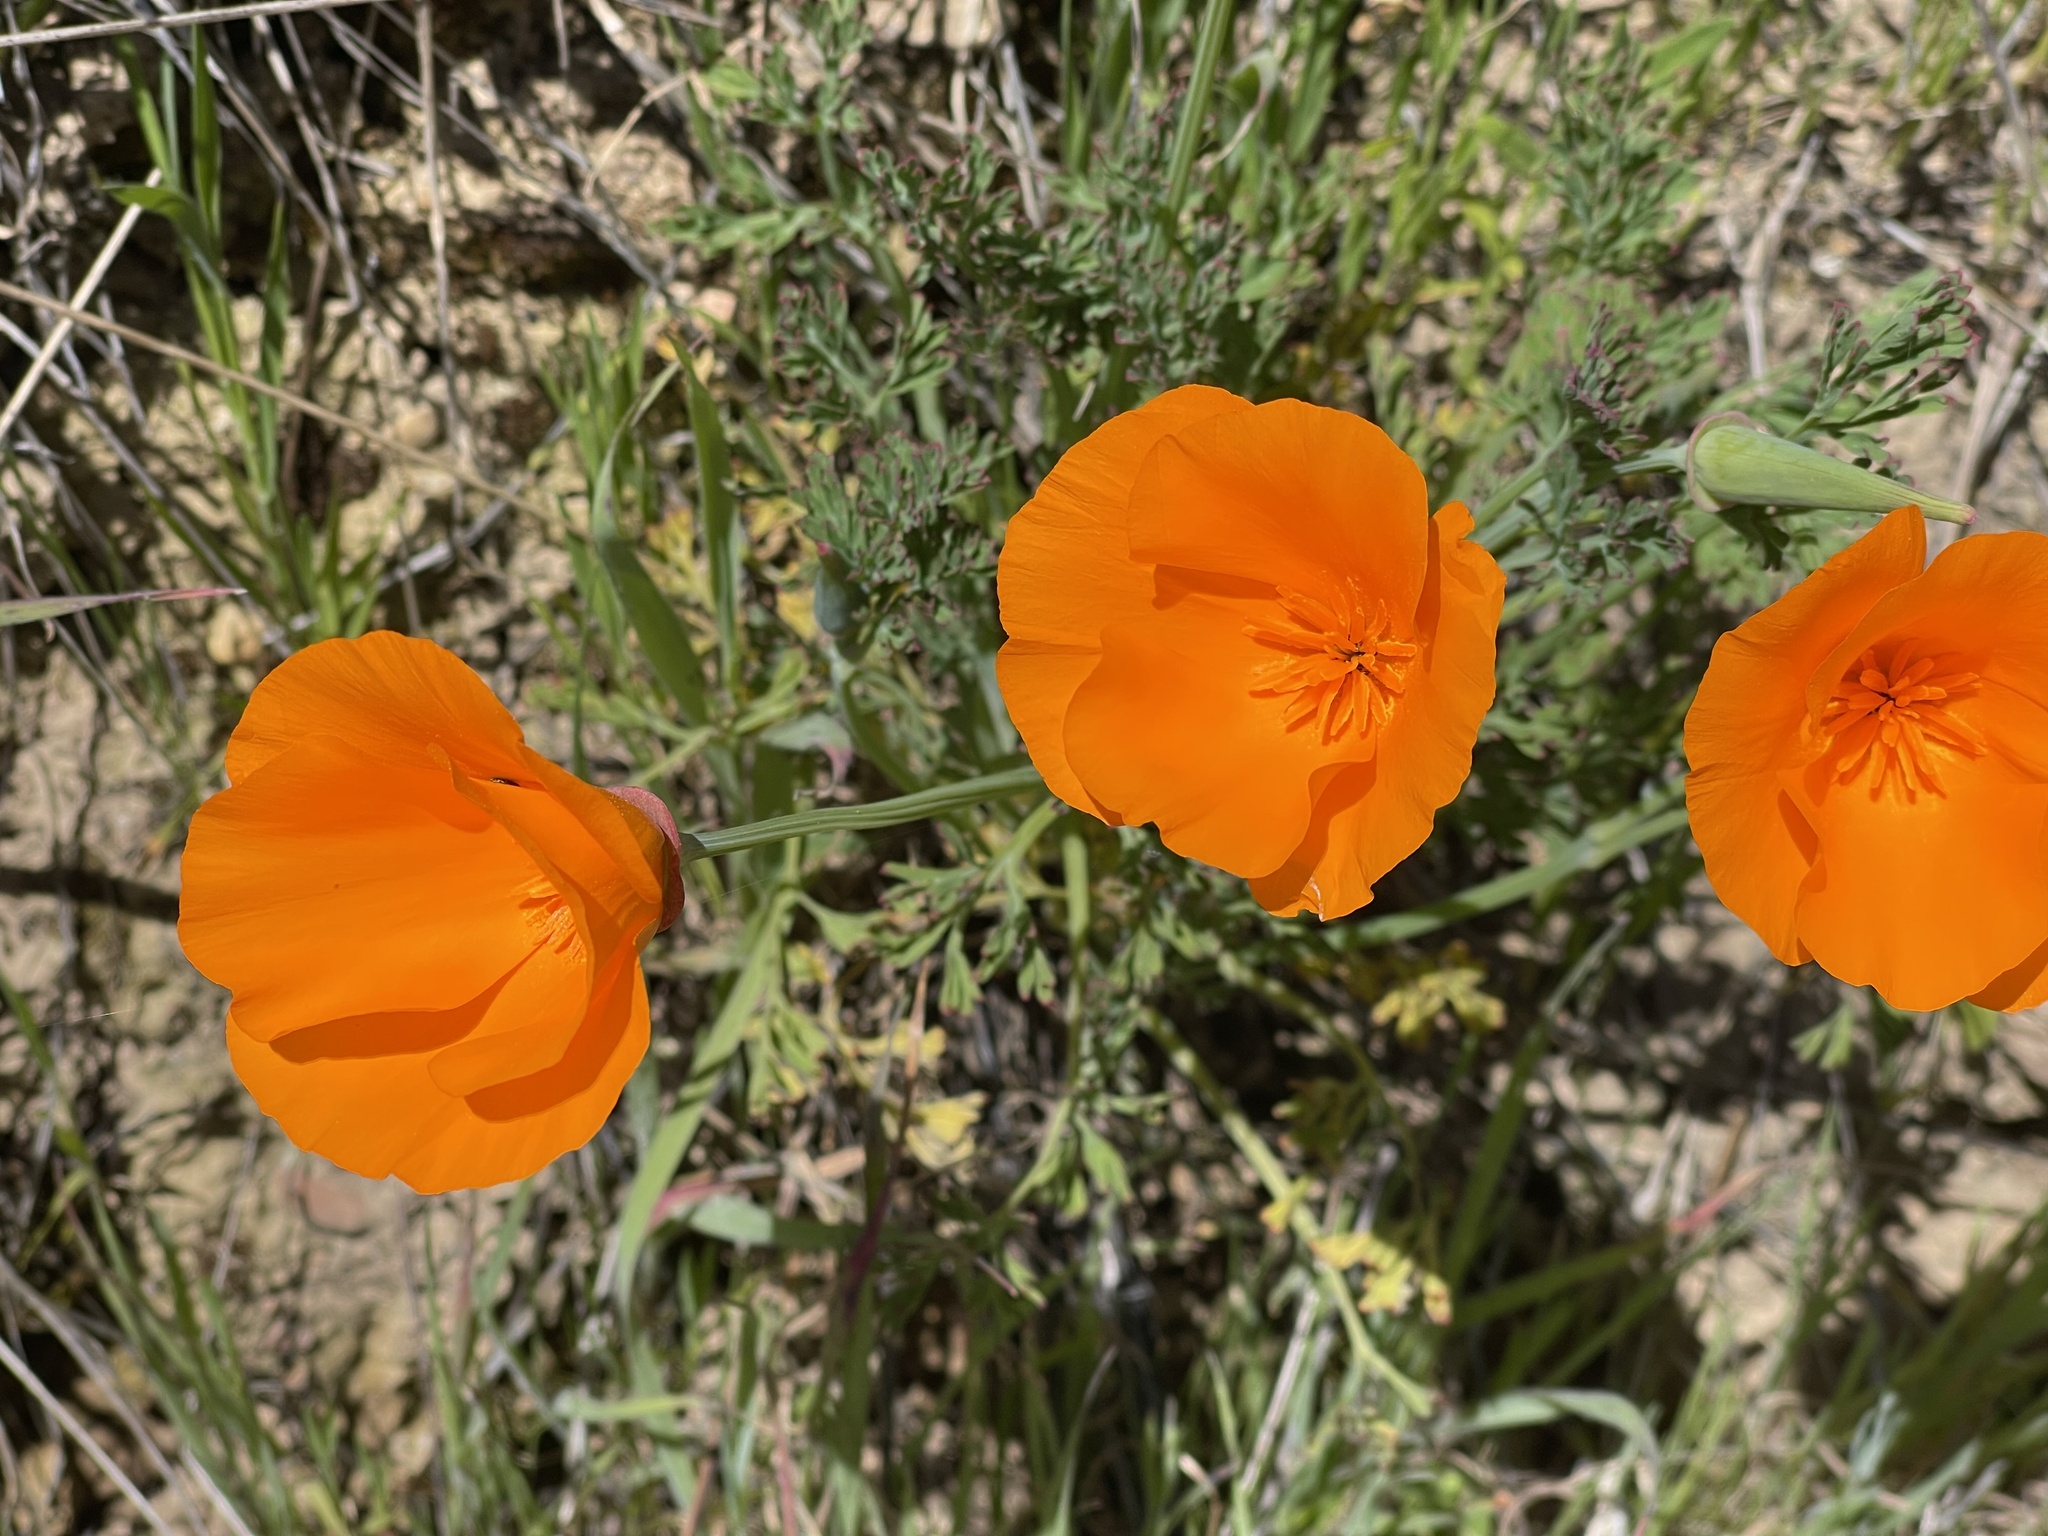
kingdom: Plantae
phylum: Tracheophyta
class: Magnoliopsida
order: Ranunculales
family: Papaveraceae
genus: Eschscholzia
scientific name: Eschscholzia californica
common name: California poppy
